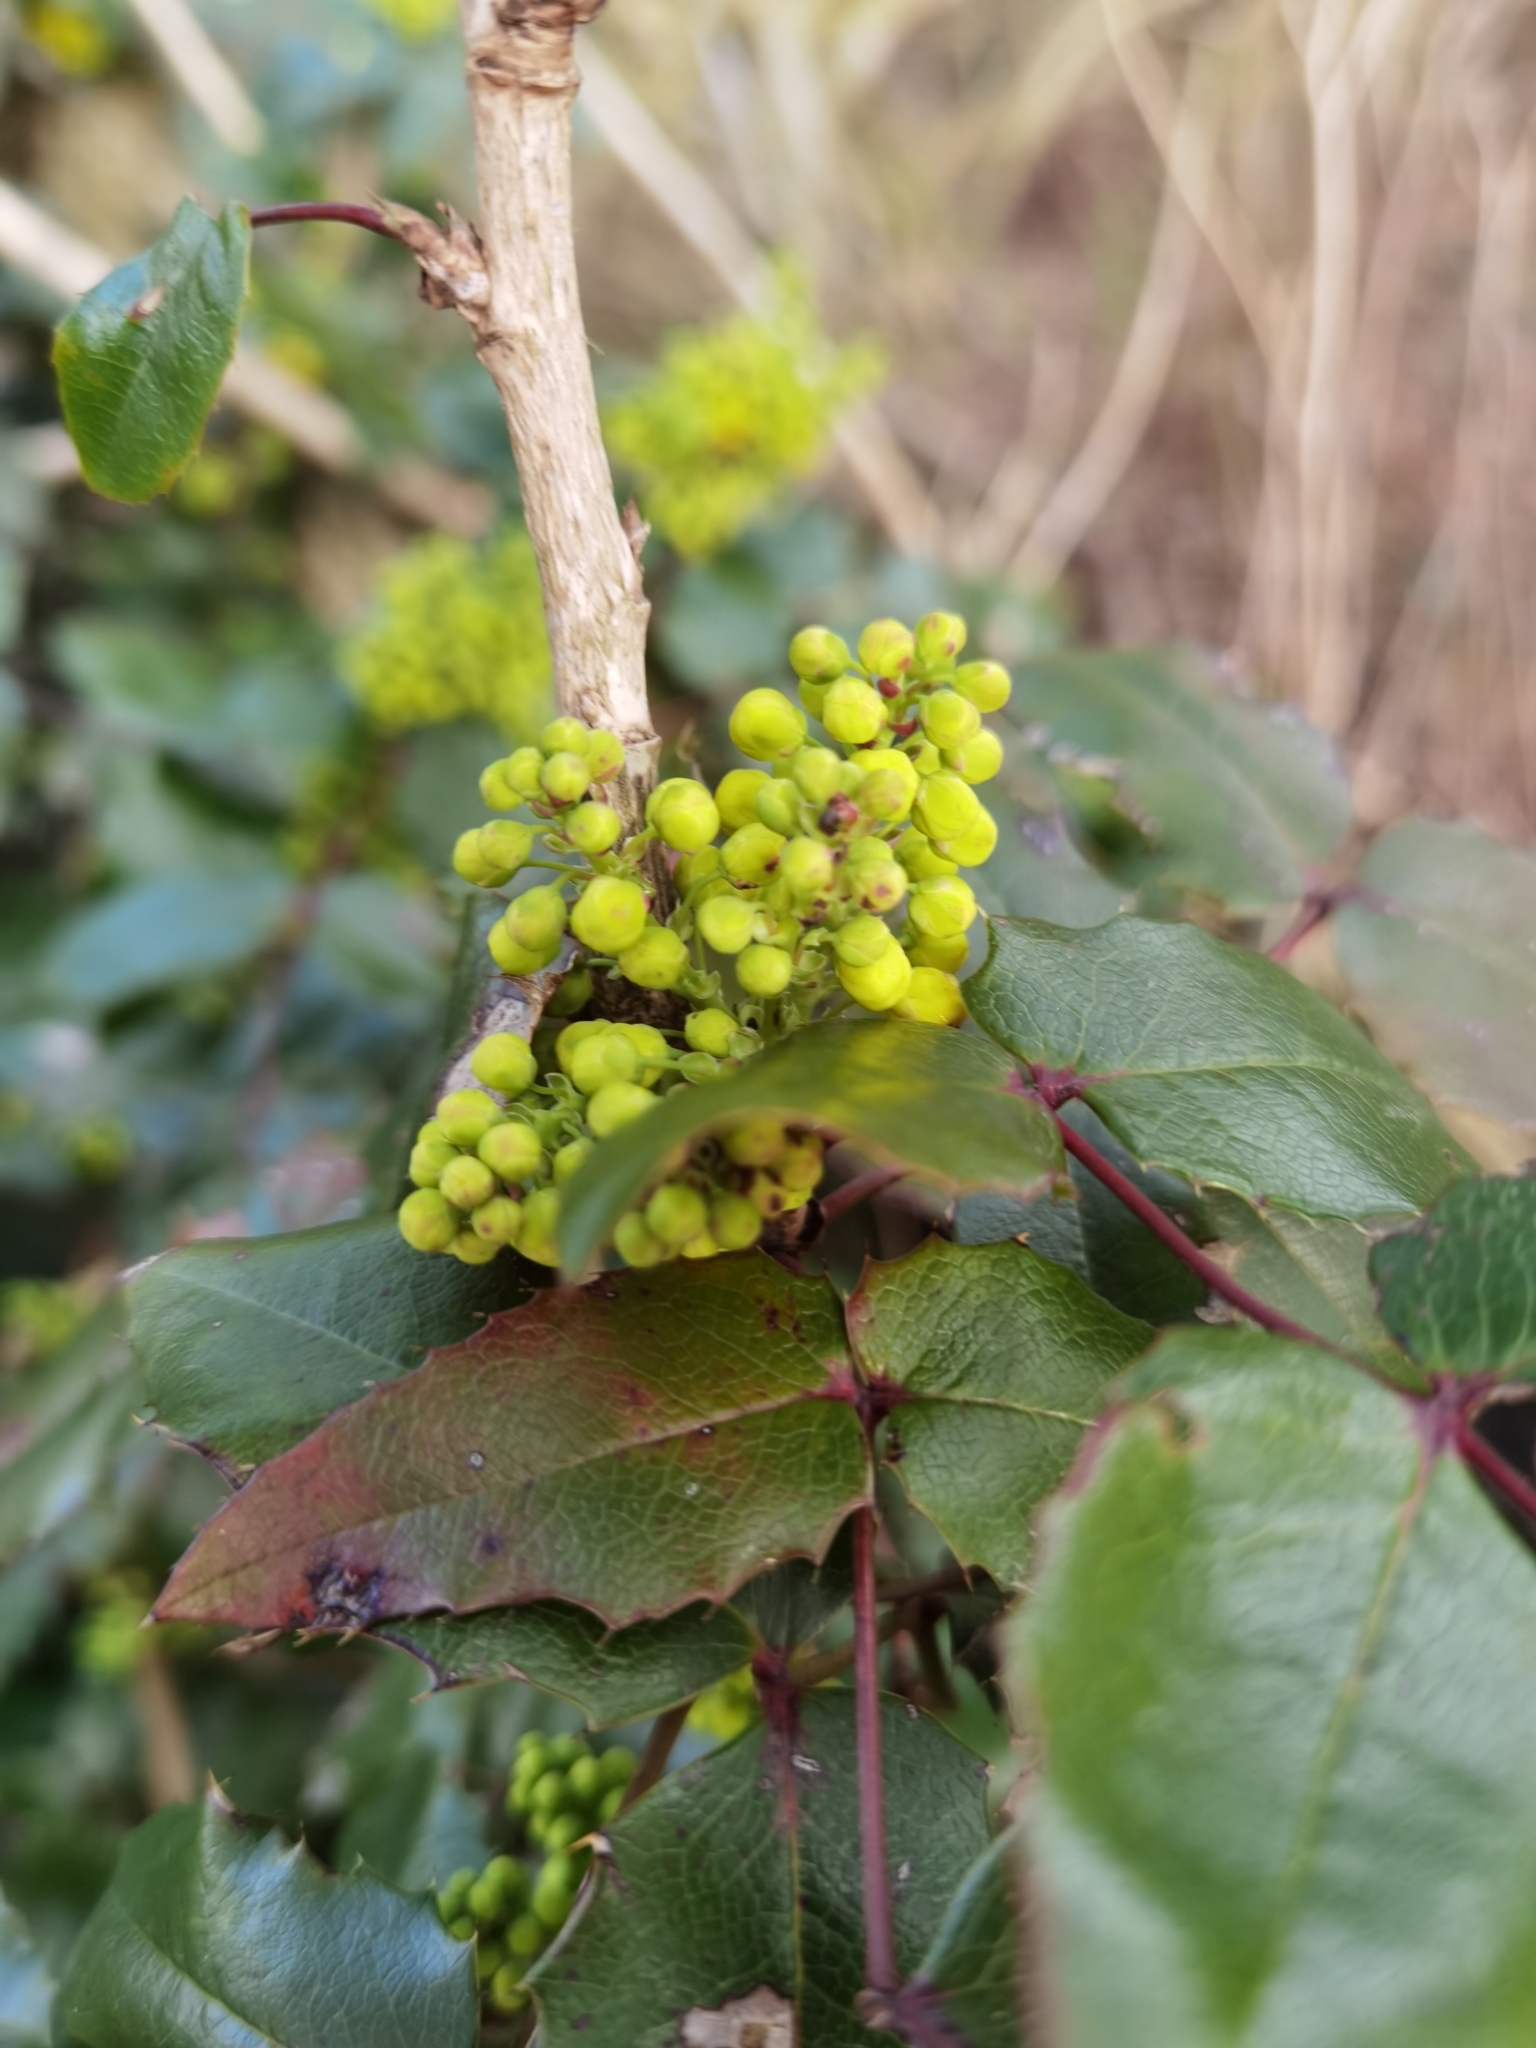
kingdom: Plantae
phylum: Tracheophyta
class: Magnoliopsida
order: Ranunculales
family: Berberidaceae
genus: Mahonia
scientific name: Mahonia aquifolium
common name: Oregon-grape
